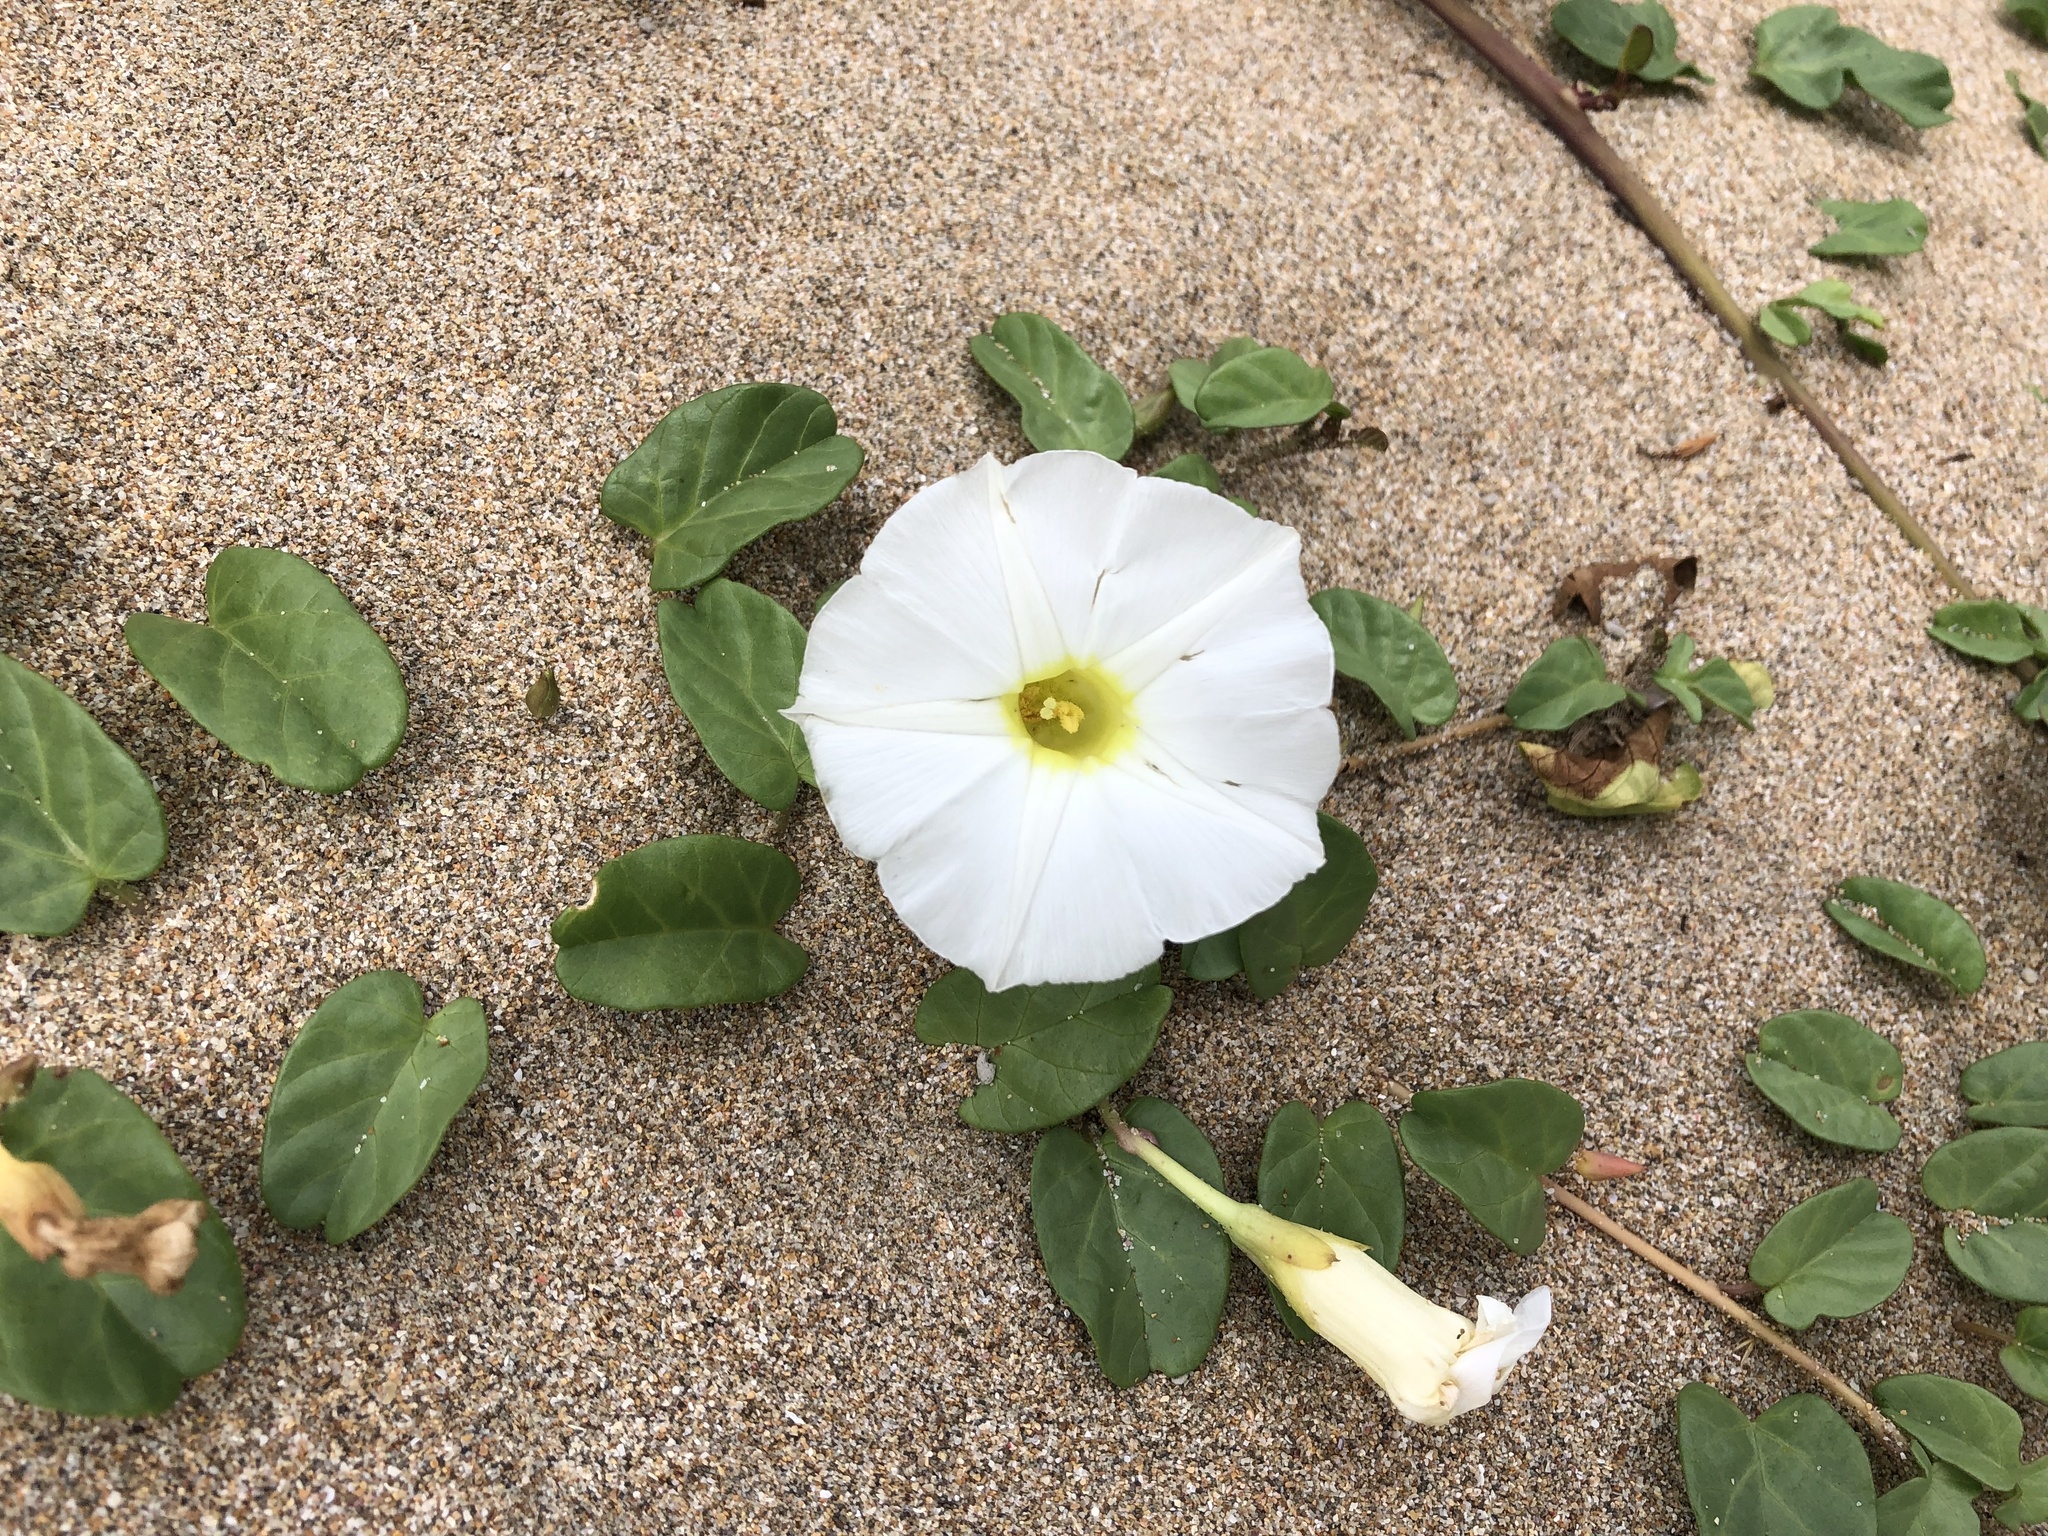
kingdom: Plantae
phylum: Tracheophyta
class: Magnoliopsida
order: Solanales
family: Convolvulaceae
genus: Ipomoea
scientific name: Ipomoea imperati
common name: Fiddle-leaf morning-glory
